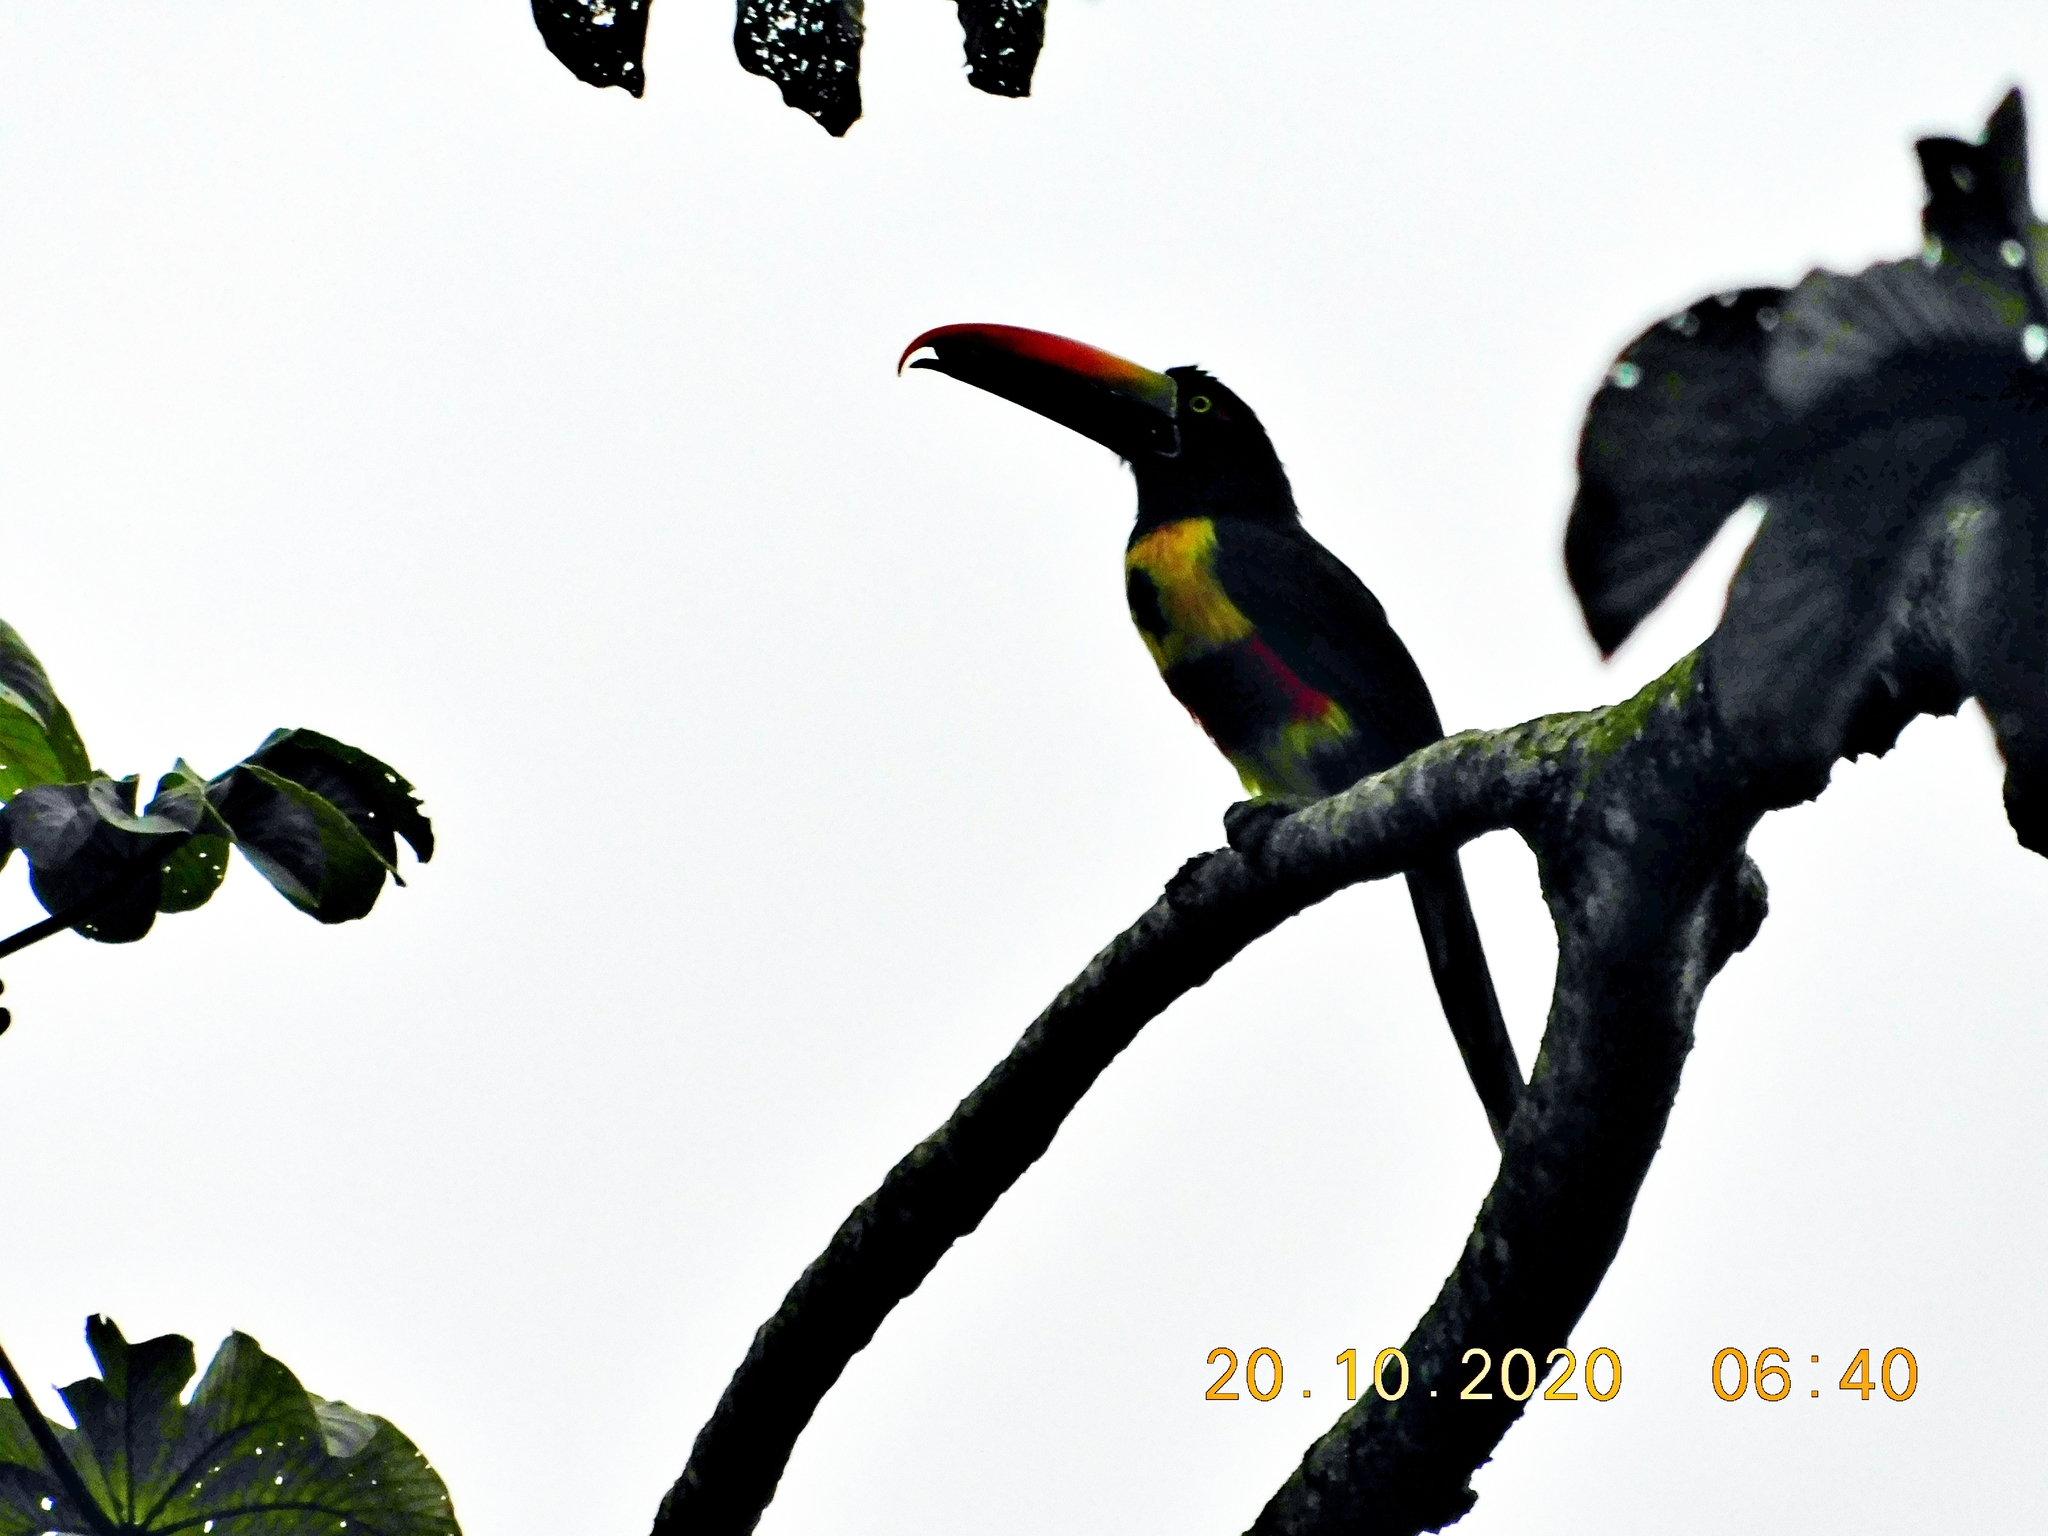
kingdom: Animalia
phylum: Chordata
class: Aves
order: Piciformes
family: Ramphastidae
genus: Pteroglossus
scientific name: Pteroglossus frantzii
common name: Fiery-billed aracari
